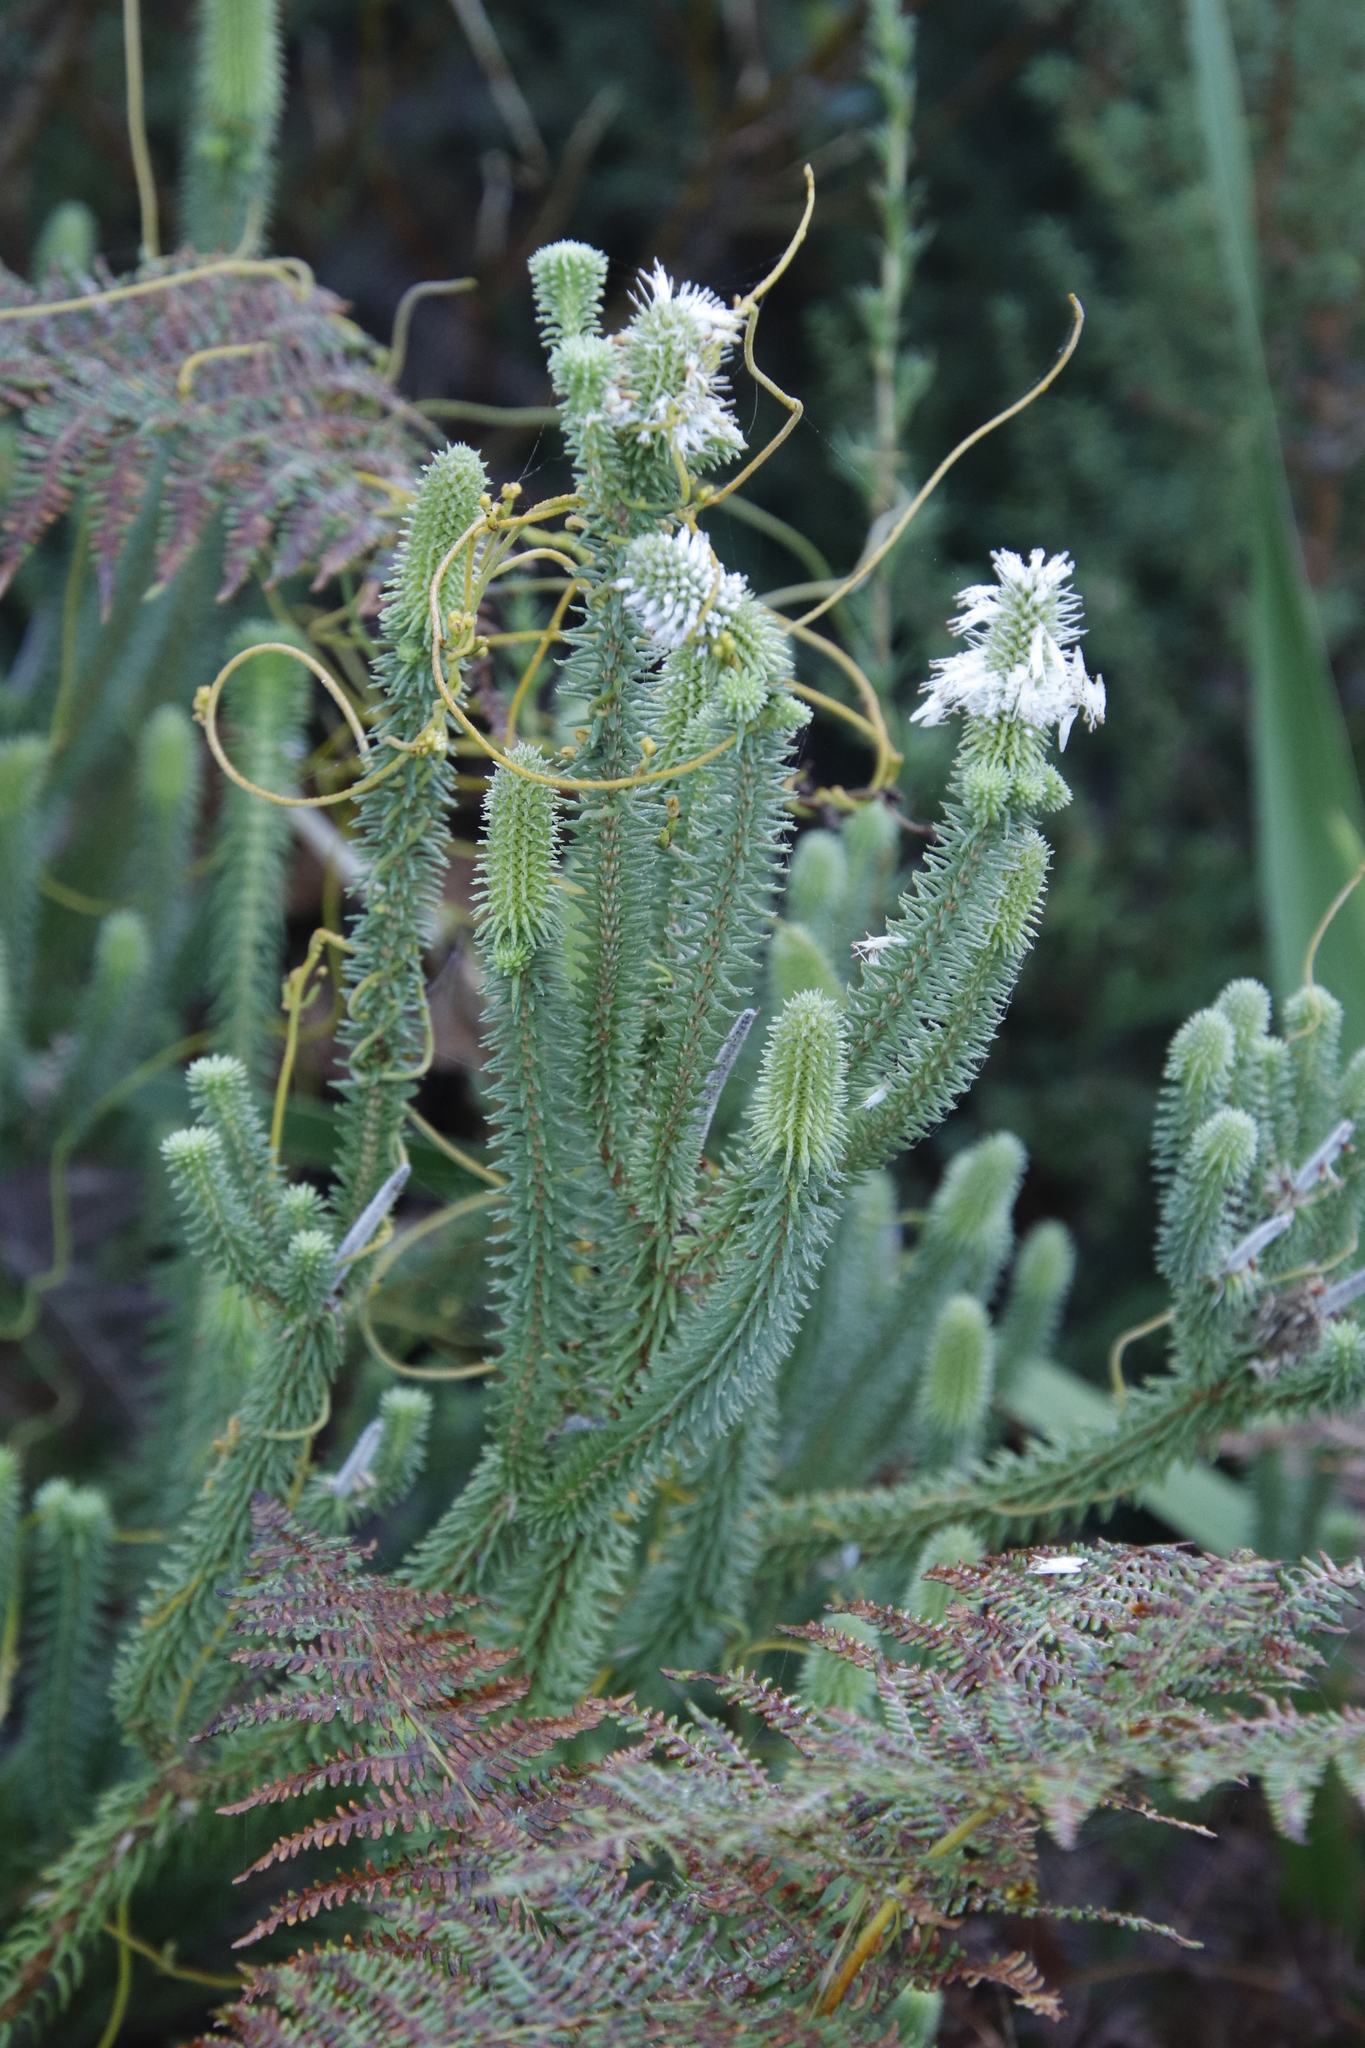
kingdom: Plantae
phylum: Tracheophyta
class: Magnoliopsida
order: Lamiales
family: Stilbaceae
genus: Stilbe
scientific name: Stilbe vestita
